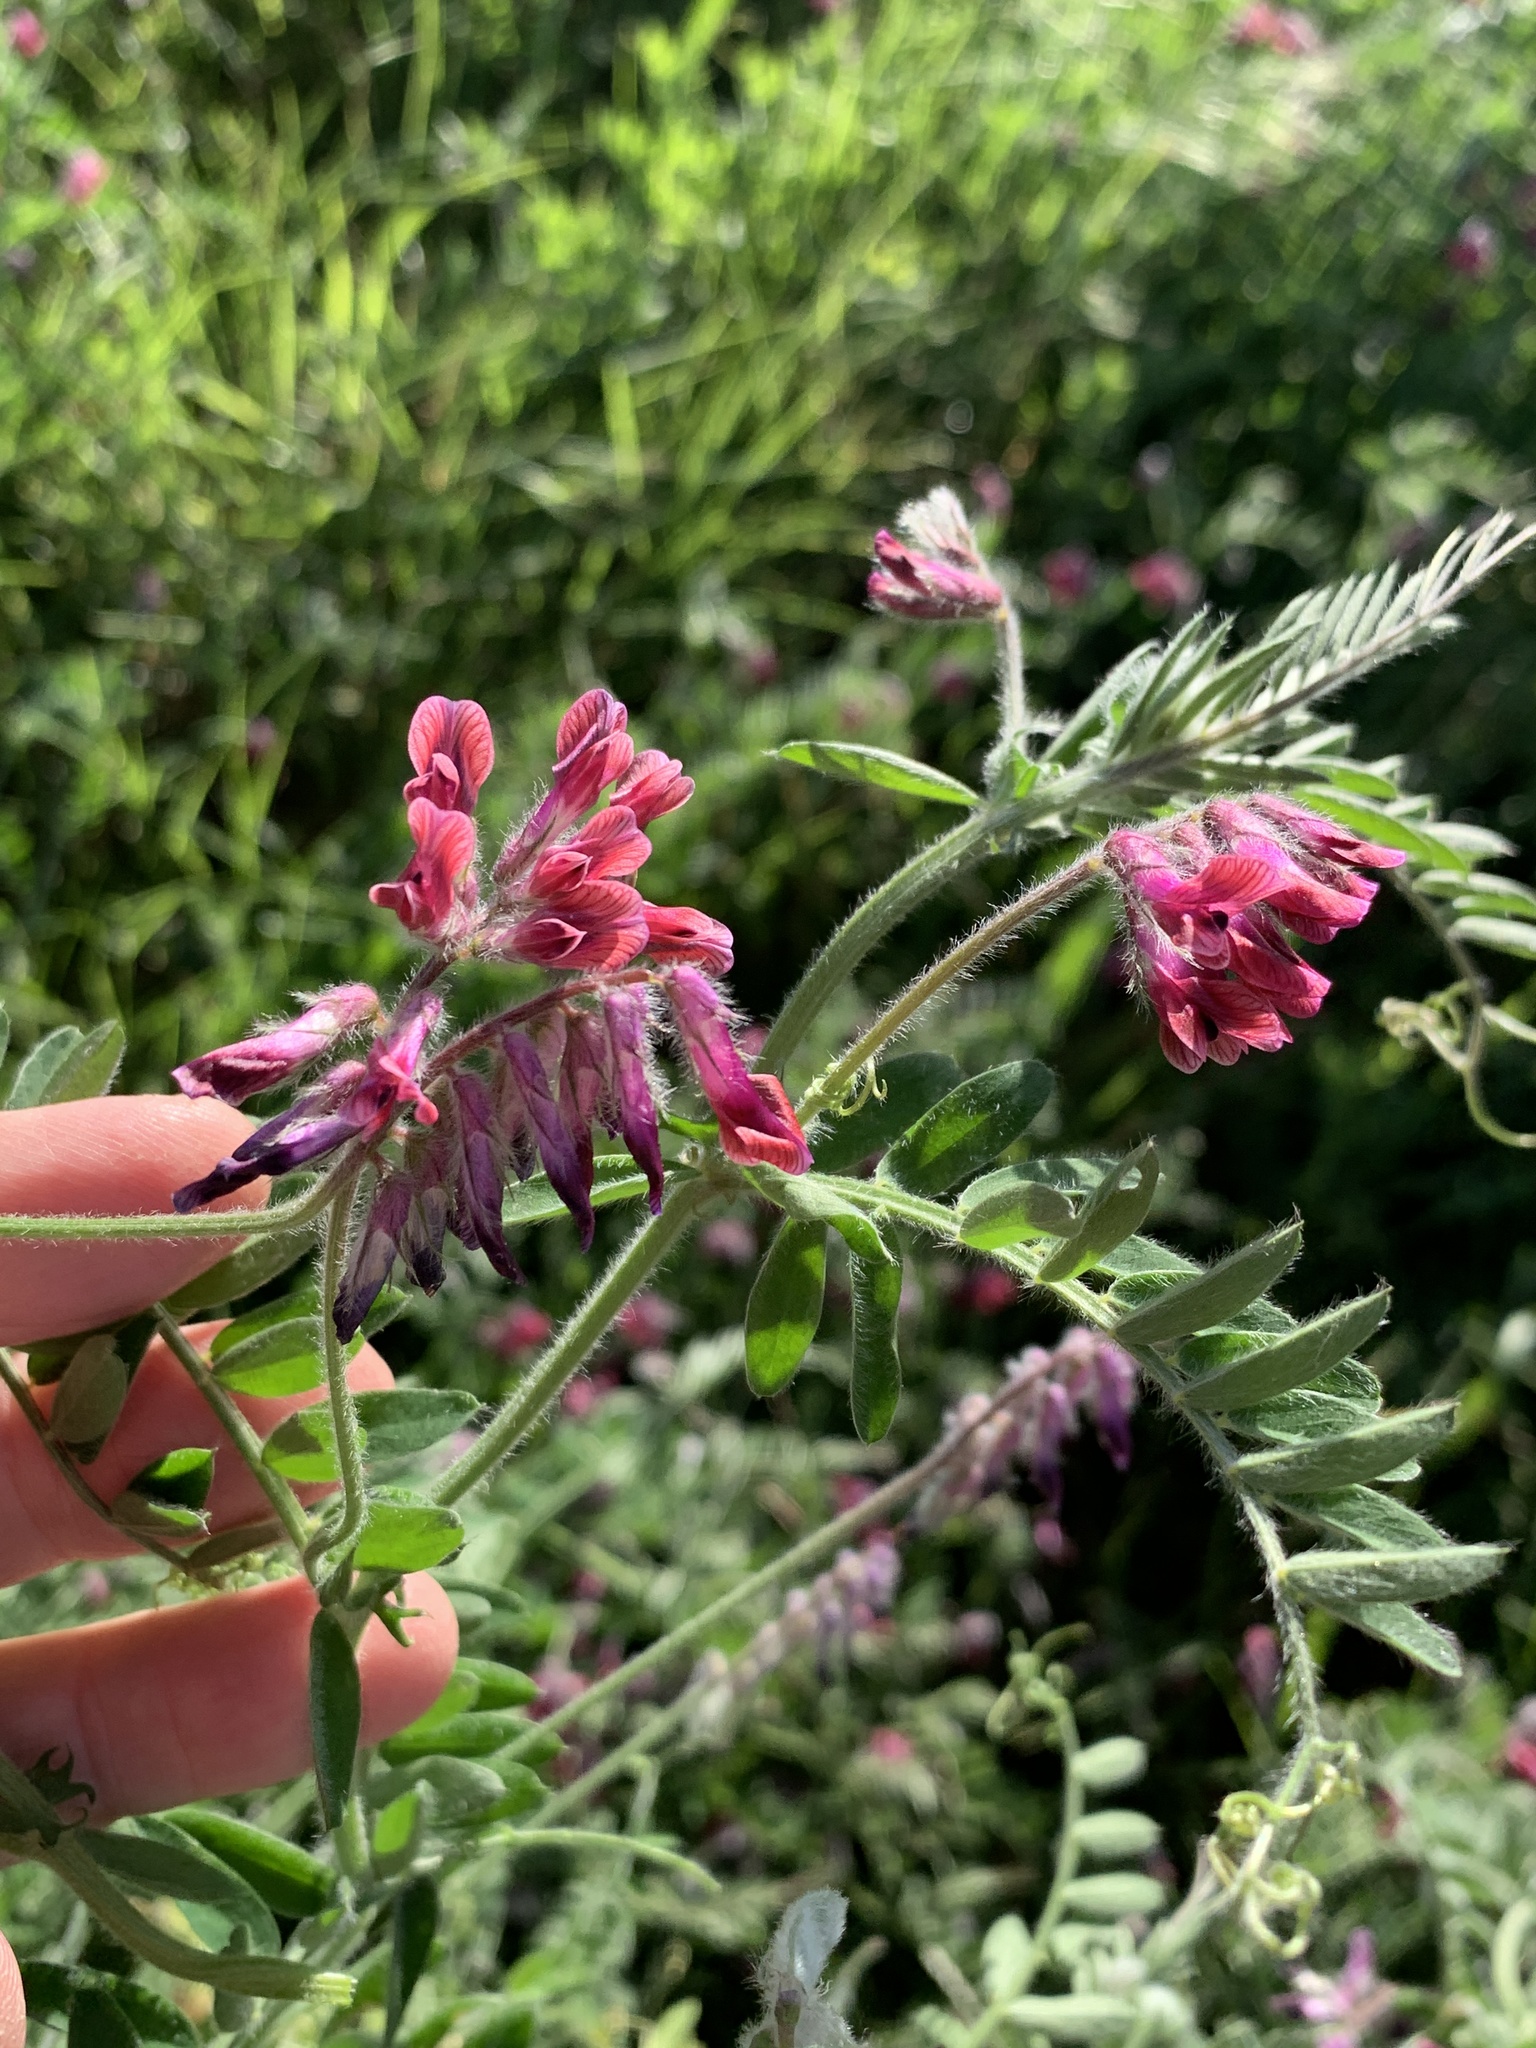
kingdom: Plantae
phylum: Tracheophyta
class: Magnoliopsida
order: Fabales
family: Fabaceae
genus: Vicia
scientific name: Vicia benghalensis
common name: Purple vetch
